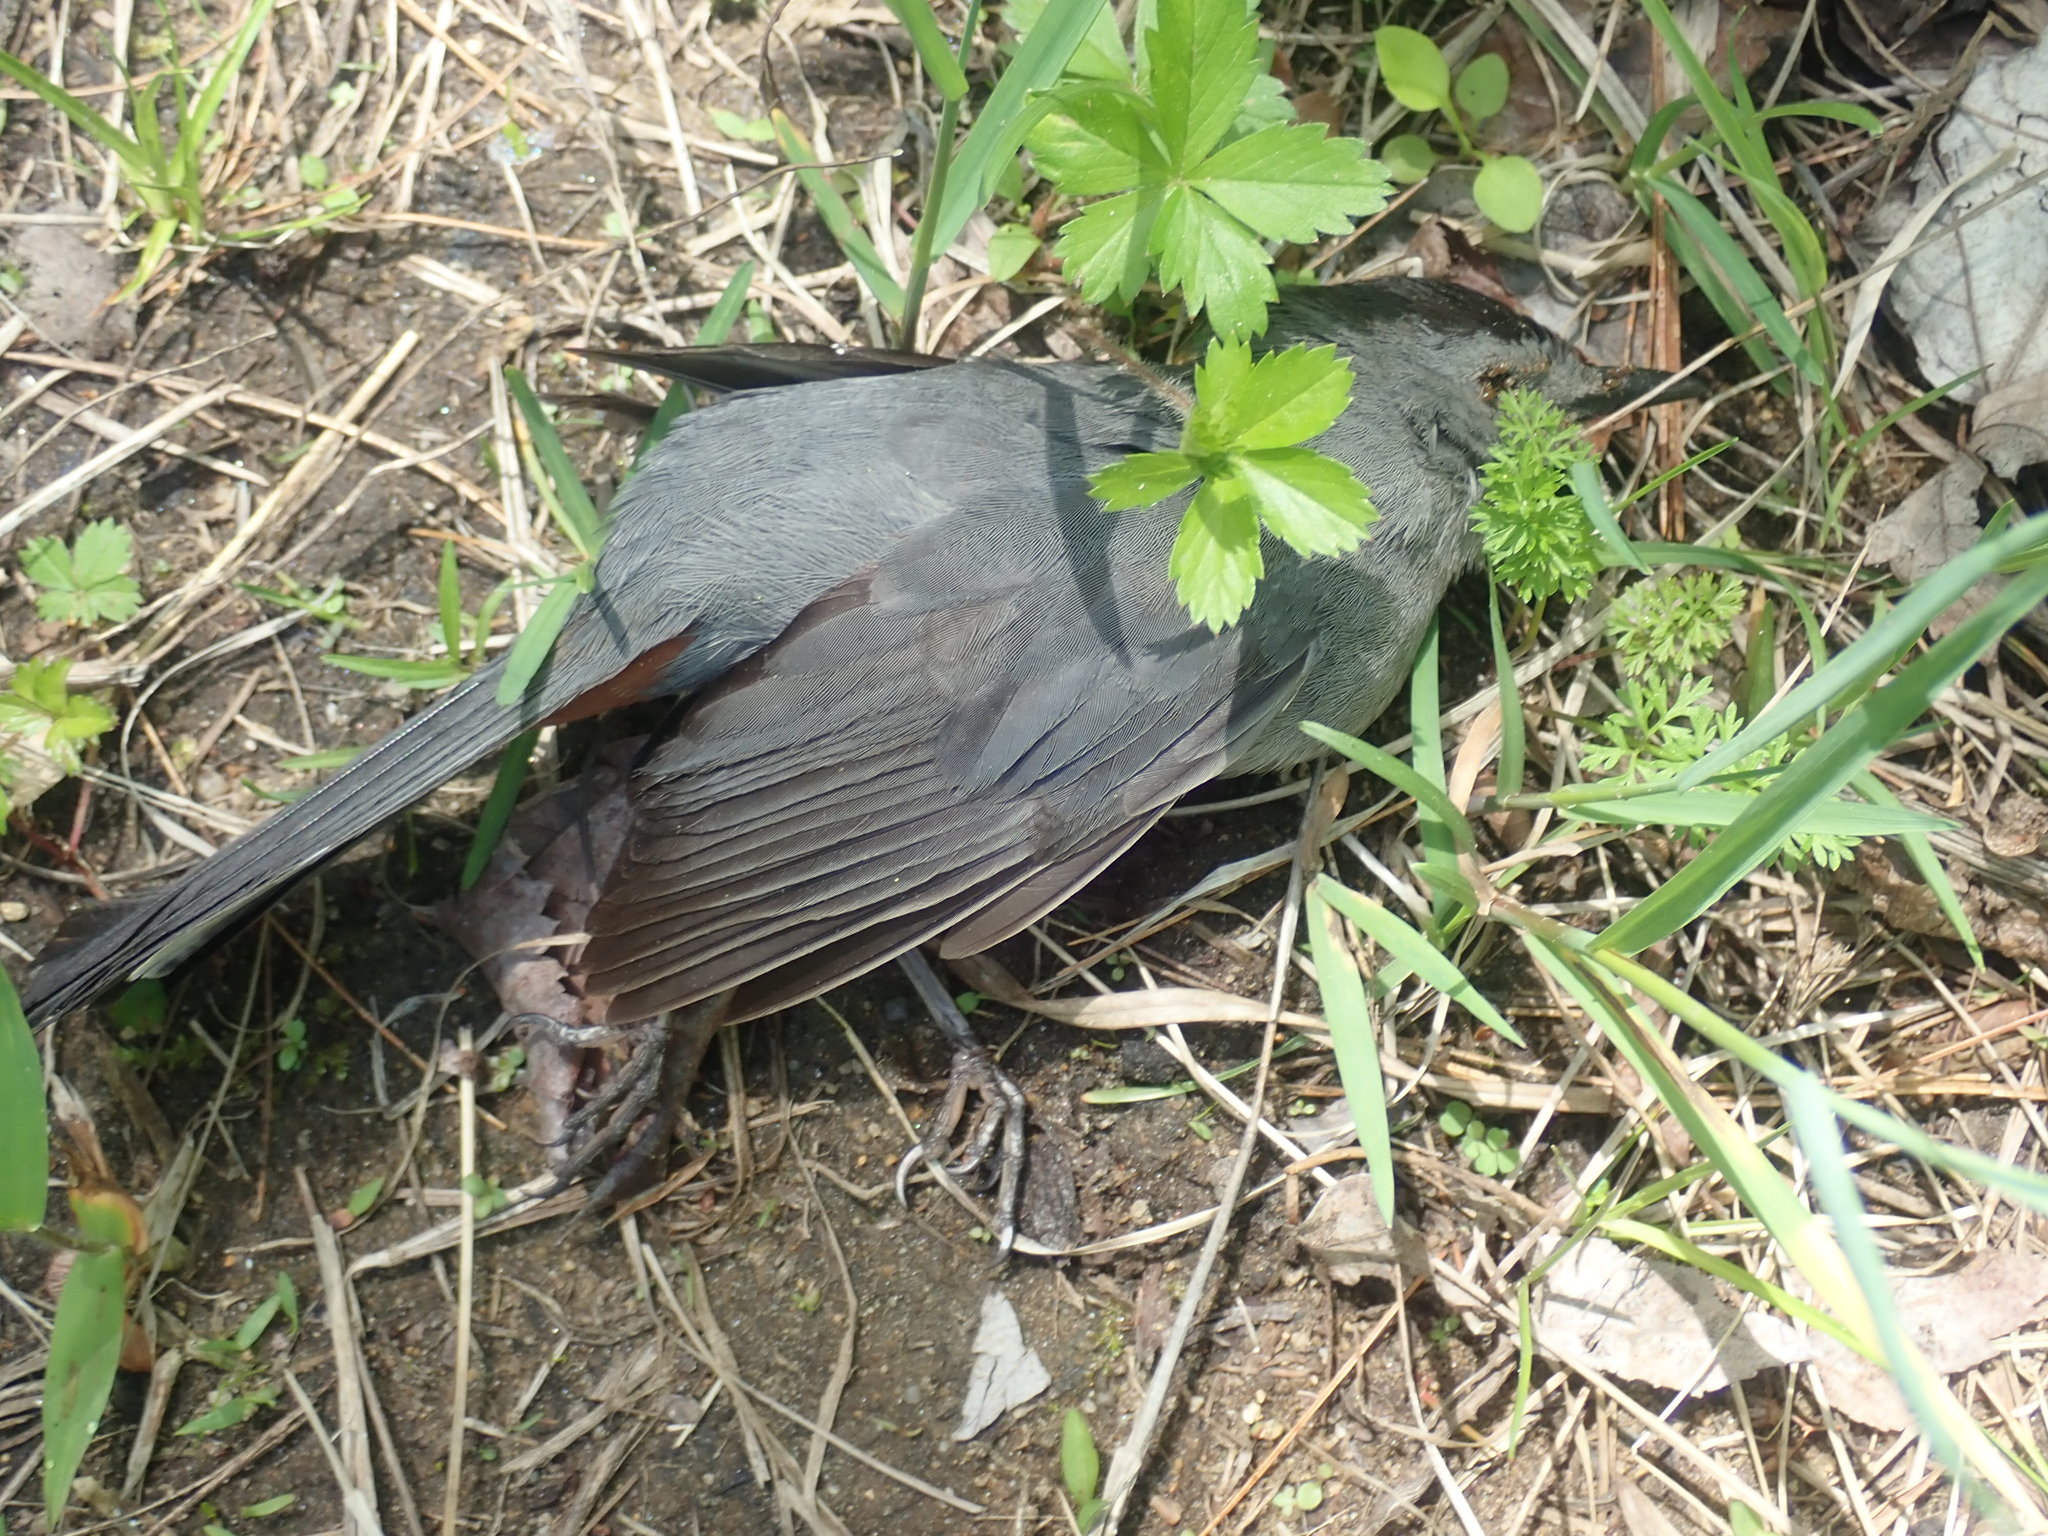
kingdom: Animalia
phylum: Chordata
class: Aves
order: Passeriformes
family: Mimidae
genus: Dumetella
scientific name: Dumetella carolinensis
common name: Gray catbird
